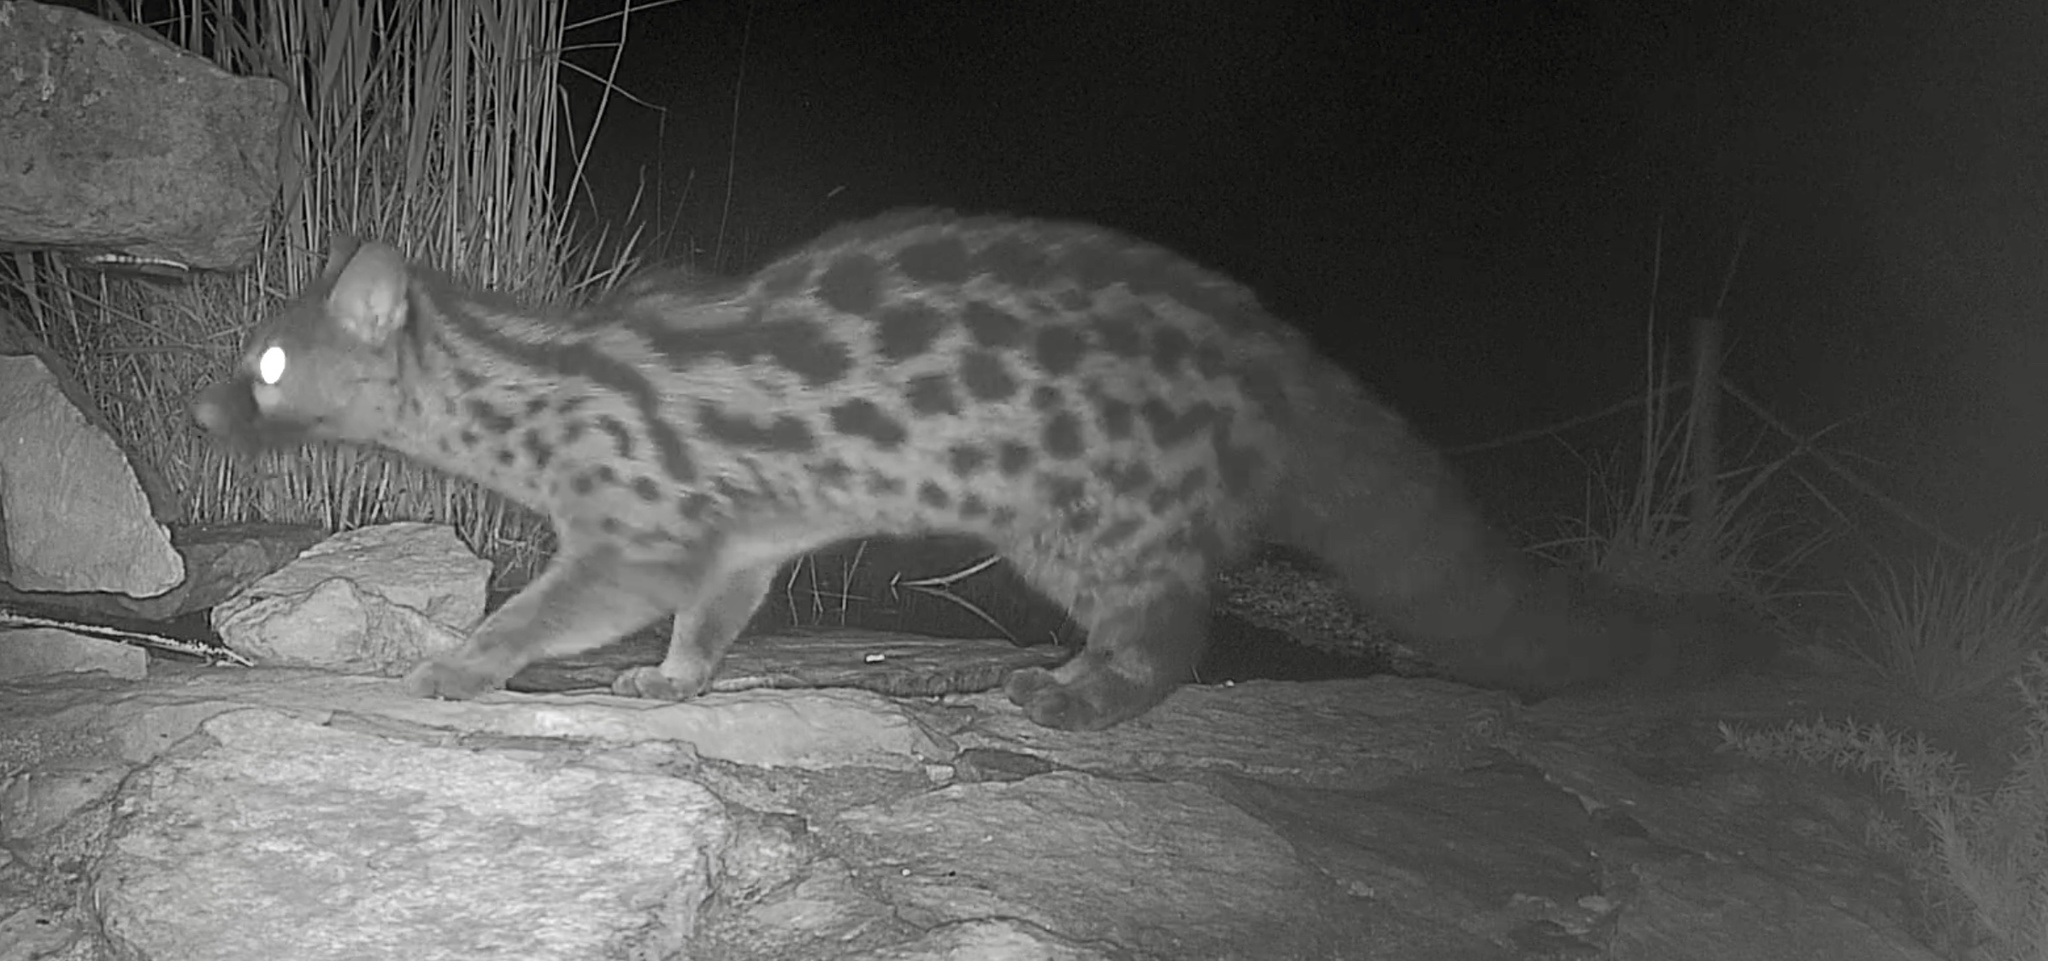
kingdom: Animalia
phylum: Chordata
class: Mammalia
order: Carnivora
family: Viverridae
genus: Genetta
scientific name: Genetta genetta
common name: Common genet
